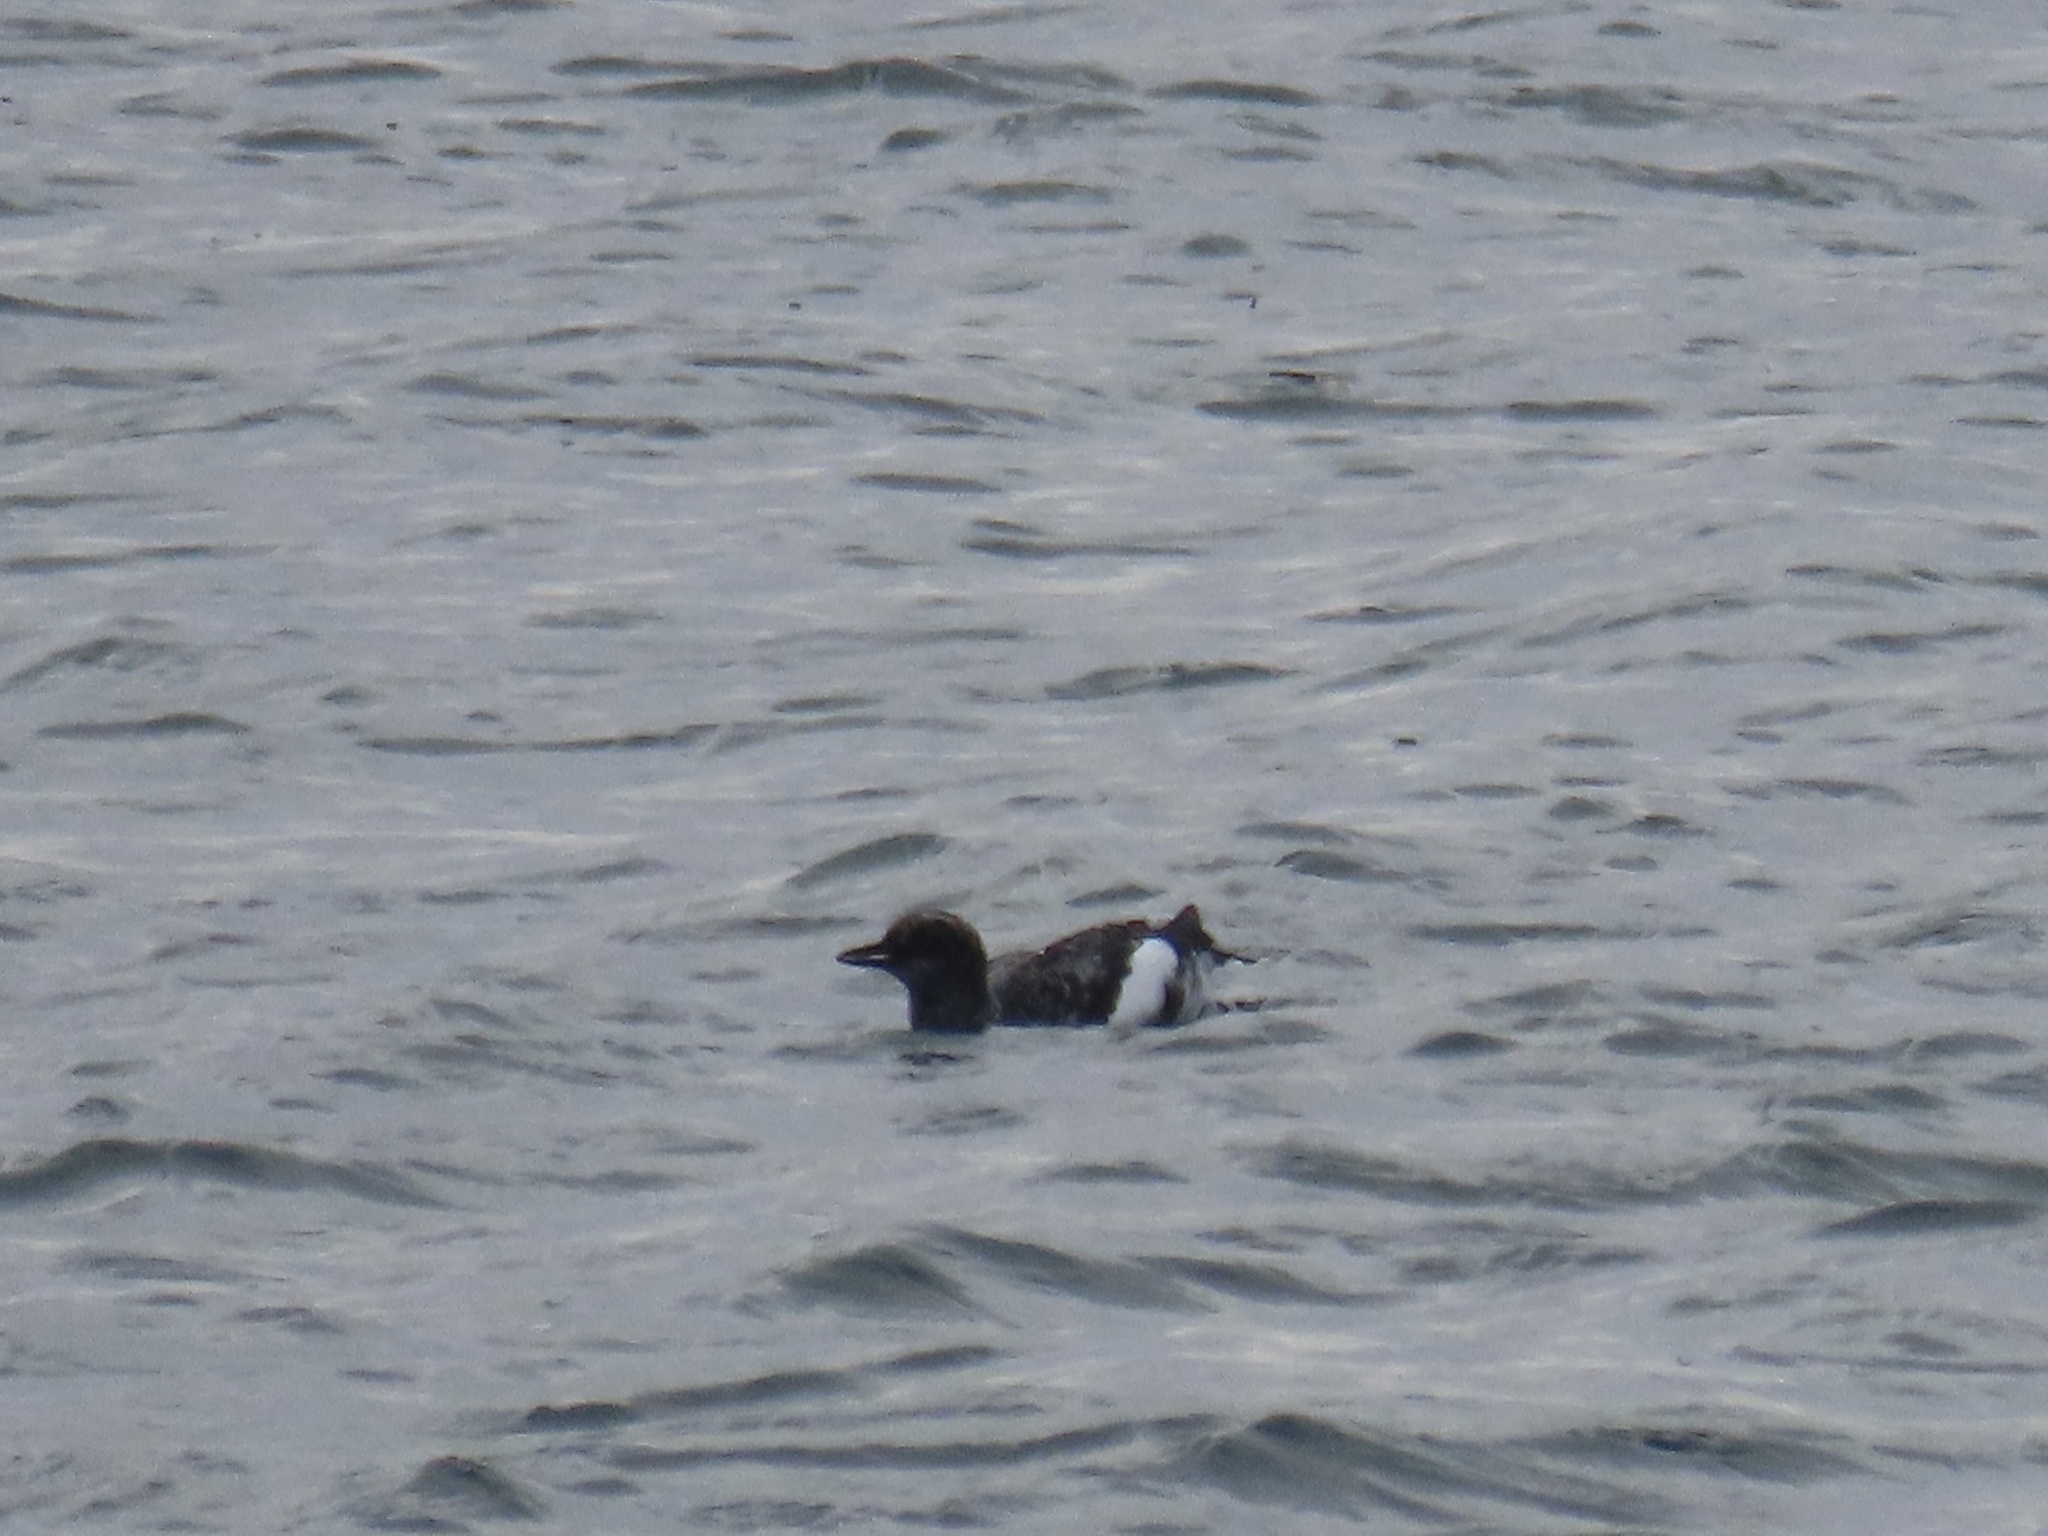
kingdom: Animalia
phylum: Chordata
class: Aves
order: Charadriiformes
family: Alcidae
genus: Cepphus
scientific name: Cepphus columba
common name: Pigeon guillemot
